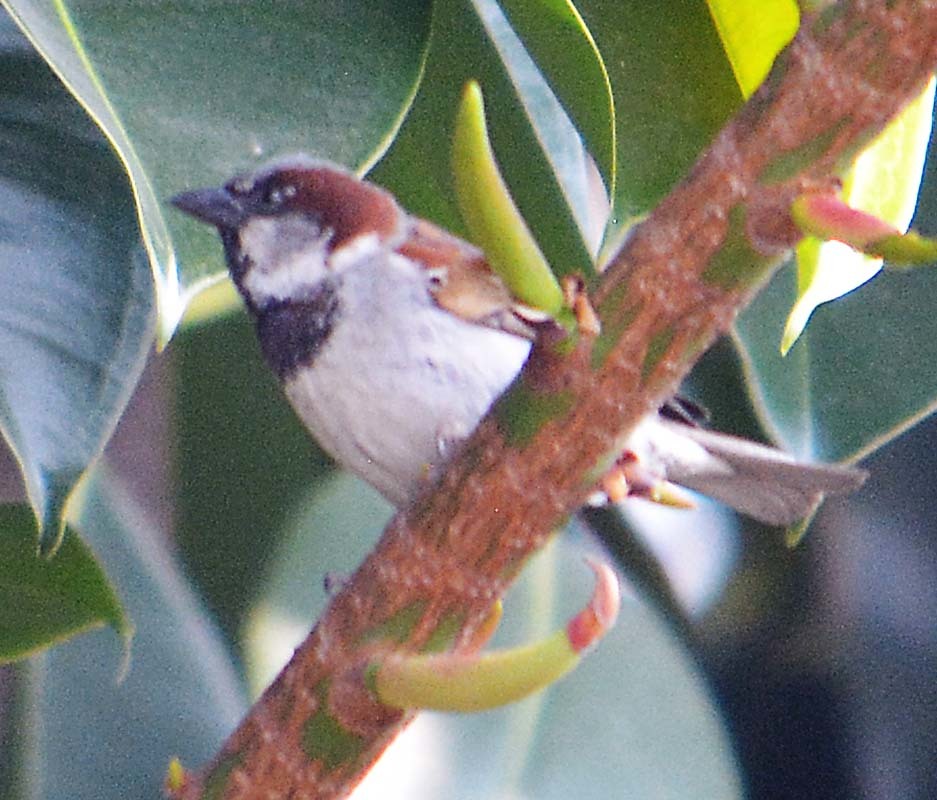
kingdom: Animalia
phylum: Chordata
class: Aves
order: Passeriformes
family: Passeridae
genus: Passer
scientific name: Passer domesticus
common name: House sparrow
